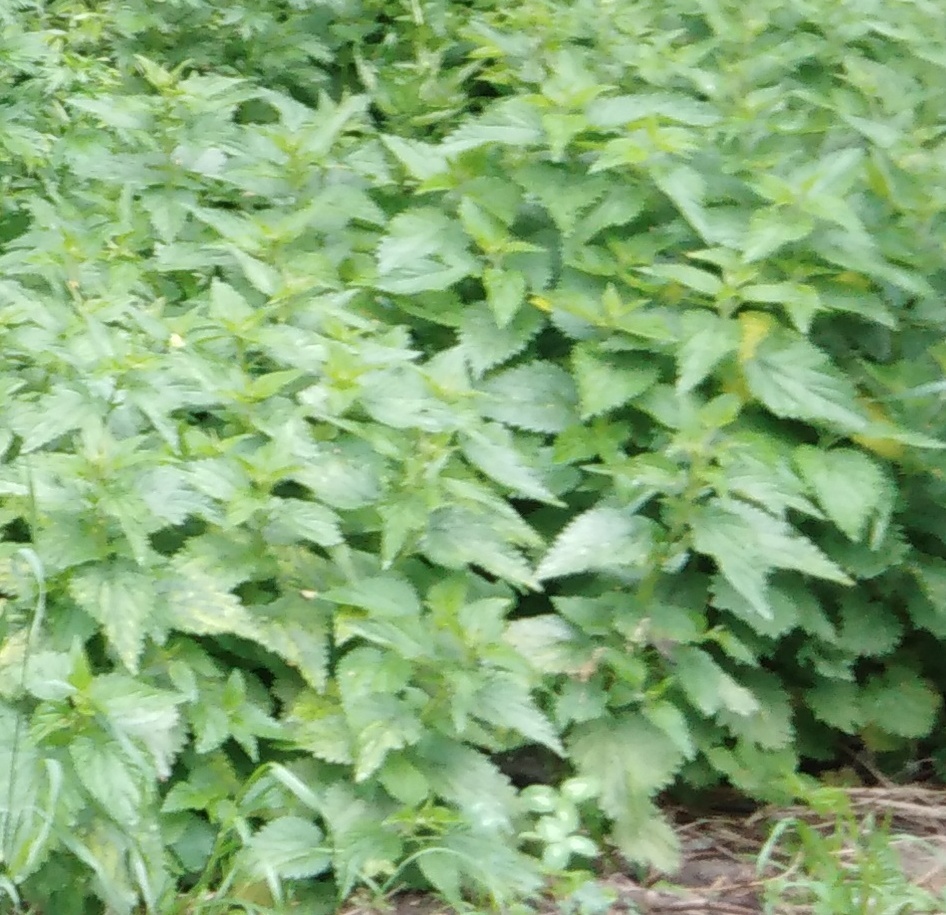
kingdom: Plantae
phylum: Tracheophyta
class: Magnoliopsida
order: Lamiales
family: Lamiaceae
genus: Lamium
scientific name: Lamium album
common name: White dead-nettle
